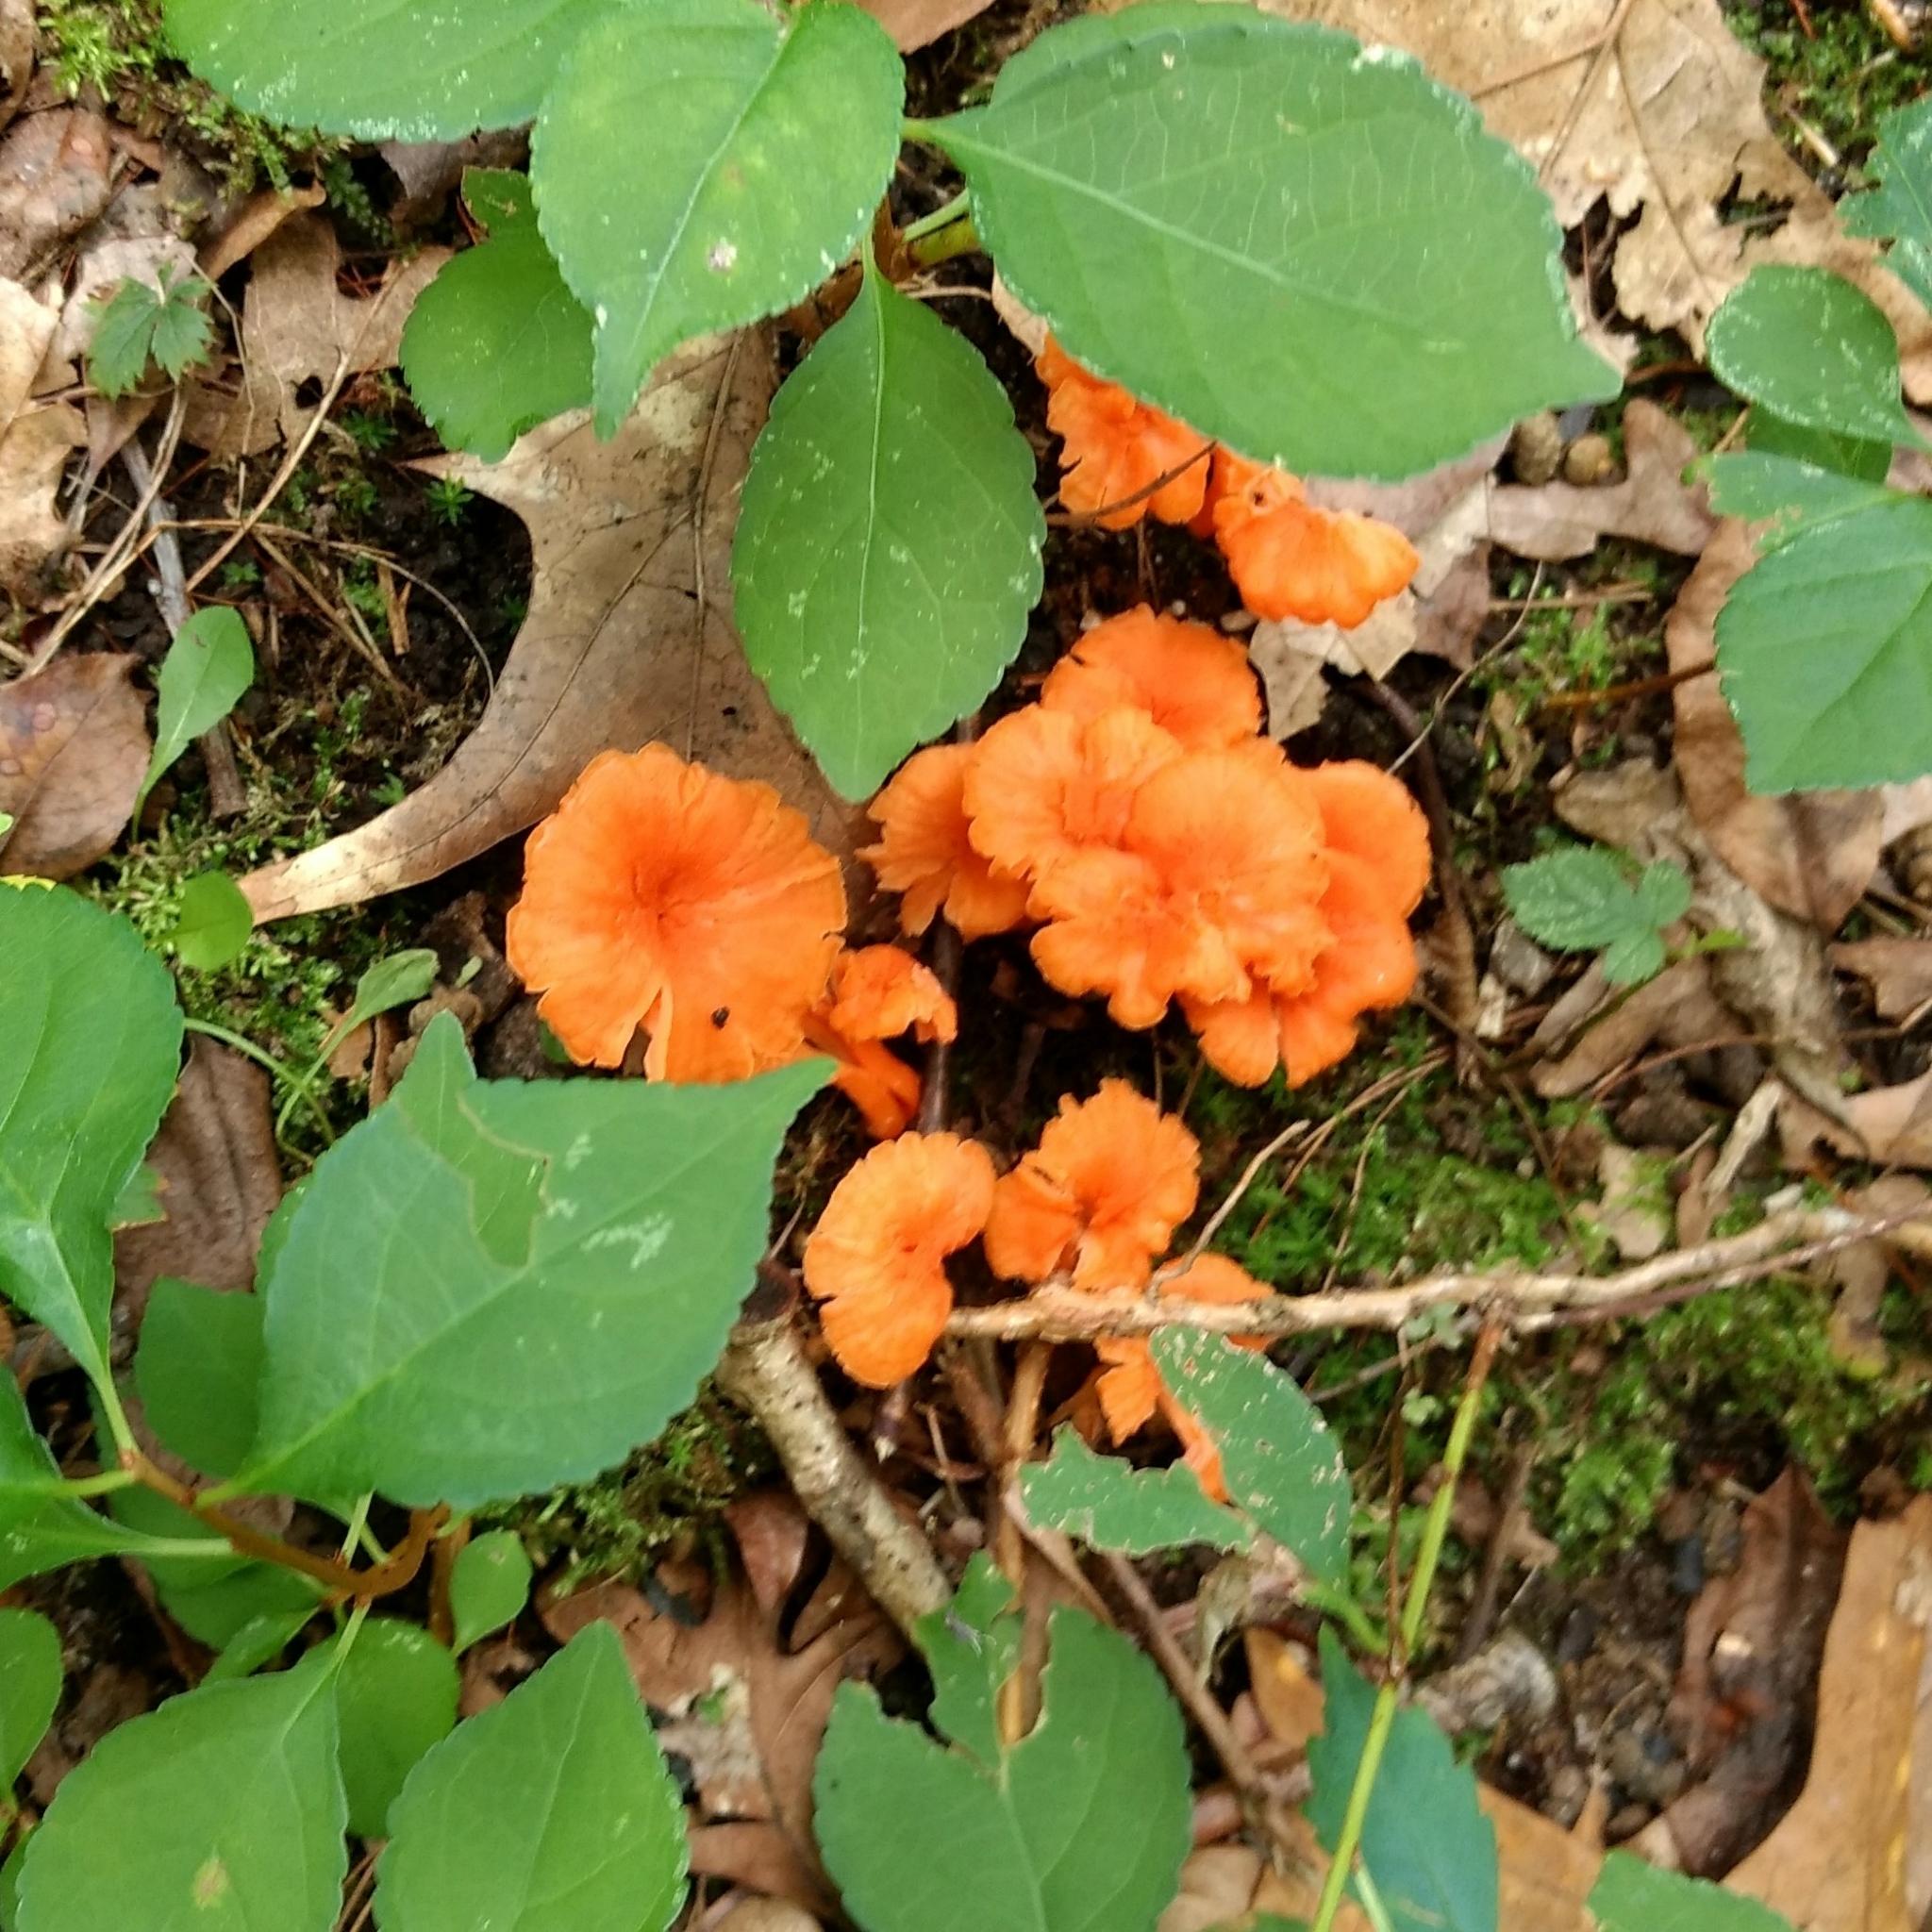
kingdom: Fungi
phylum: Basidiomycota
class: Agaricomycetes
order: Cantharellales
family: Hydnaceae
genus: Cantharellus
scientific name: Cantharellus cinnabarinus
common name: Cinnabar chanterelle
